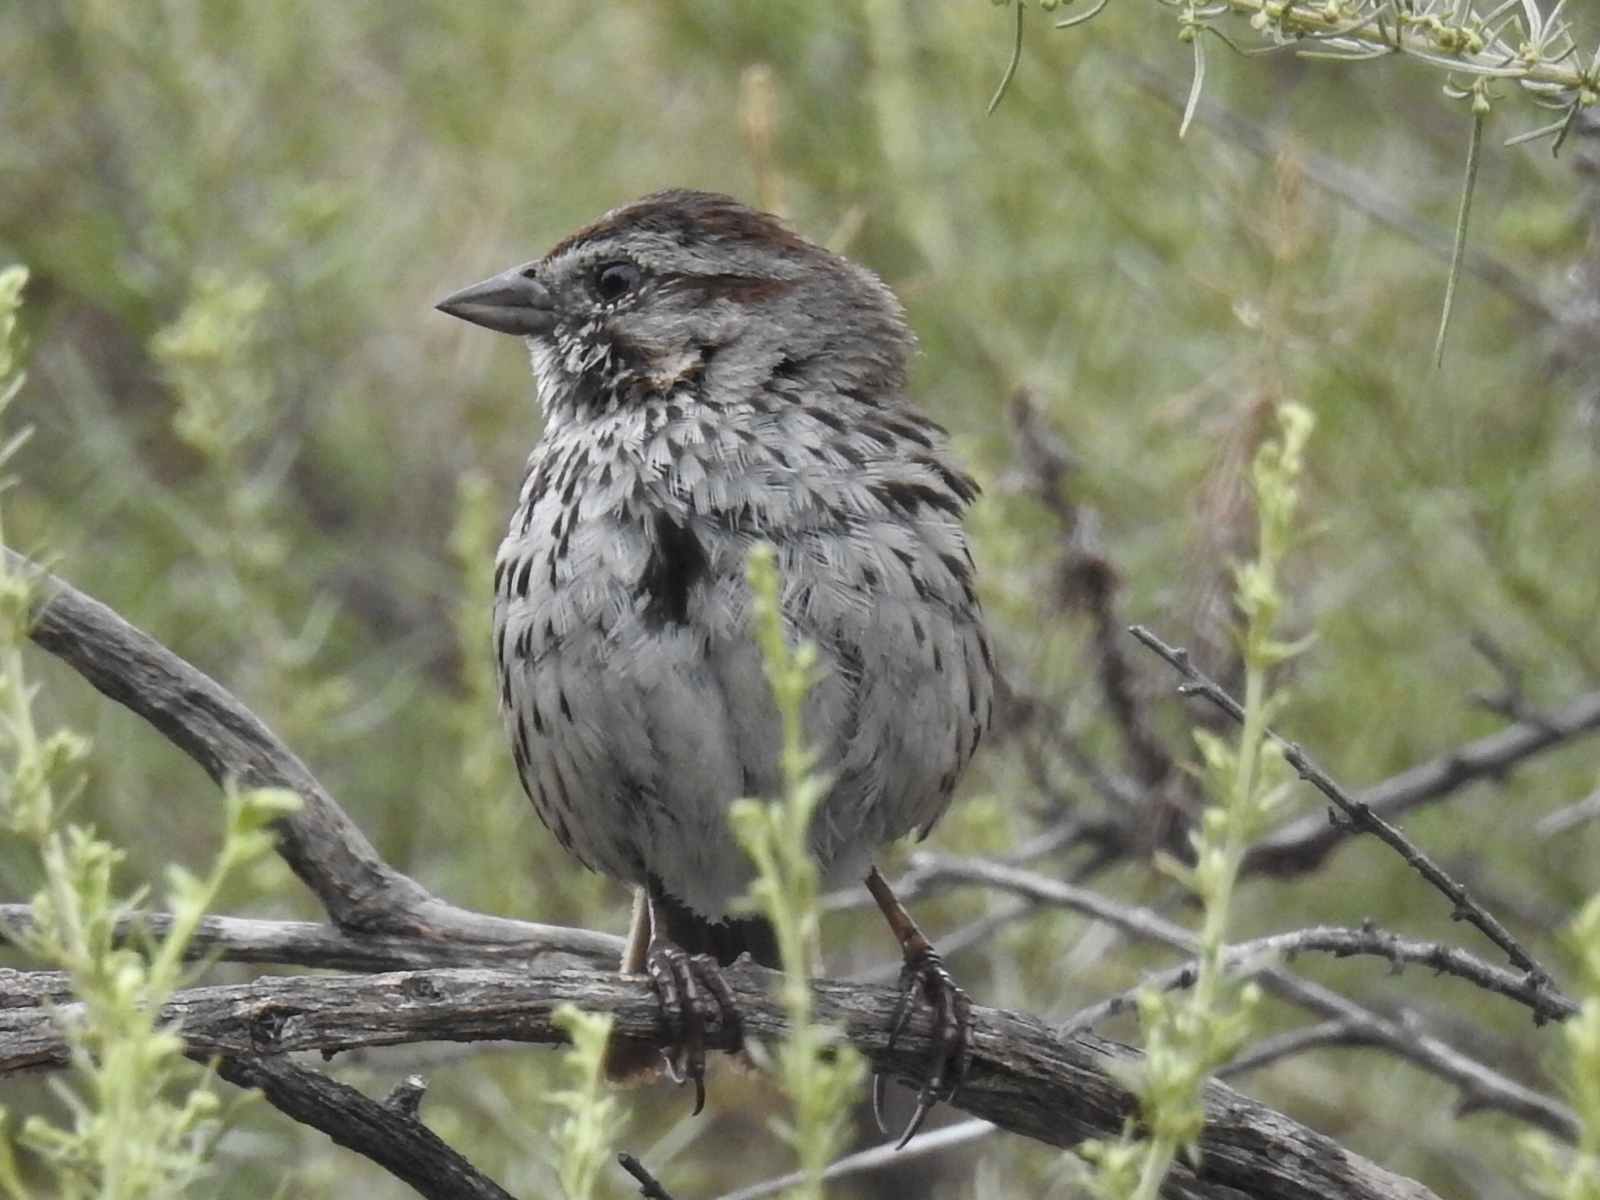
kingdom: Animalia
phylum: Chordata
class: Aves
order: Passeriformes
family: Passerellidae
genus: Melospiza
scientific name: Melospiza melodia
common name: Song sparrow
